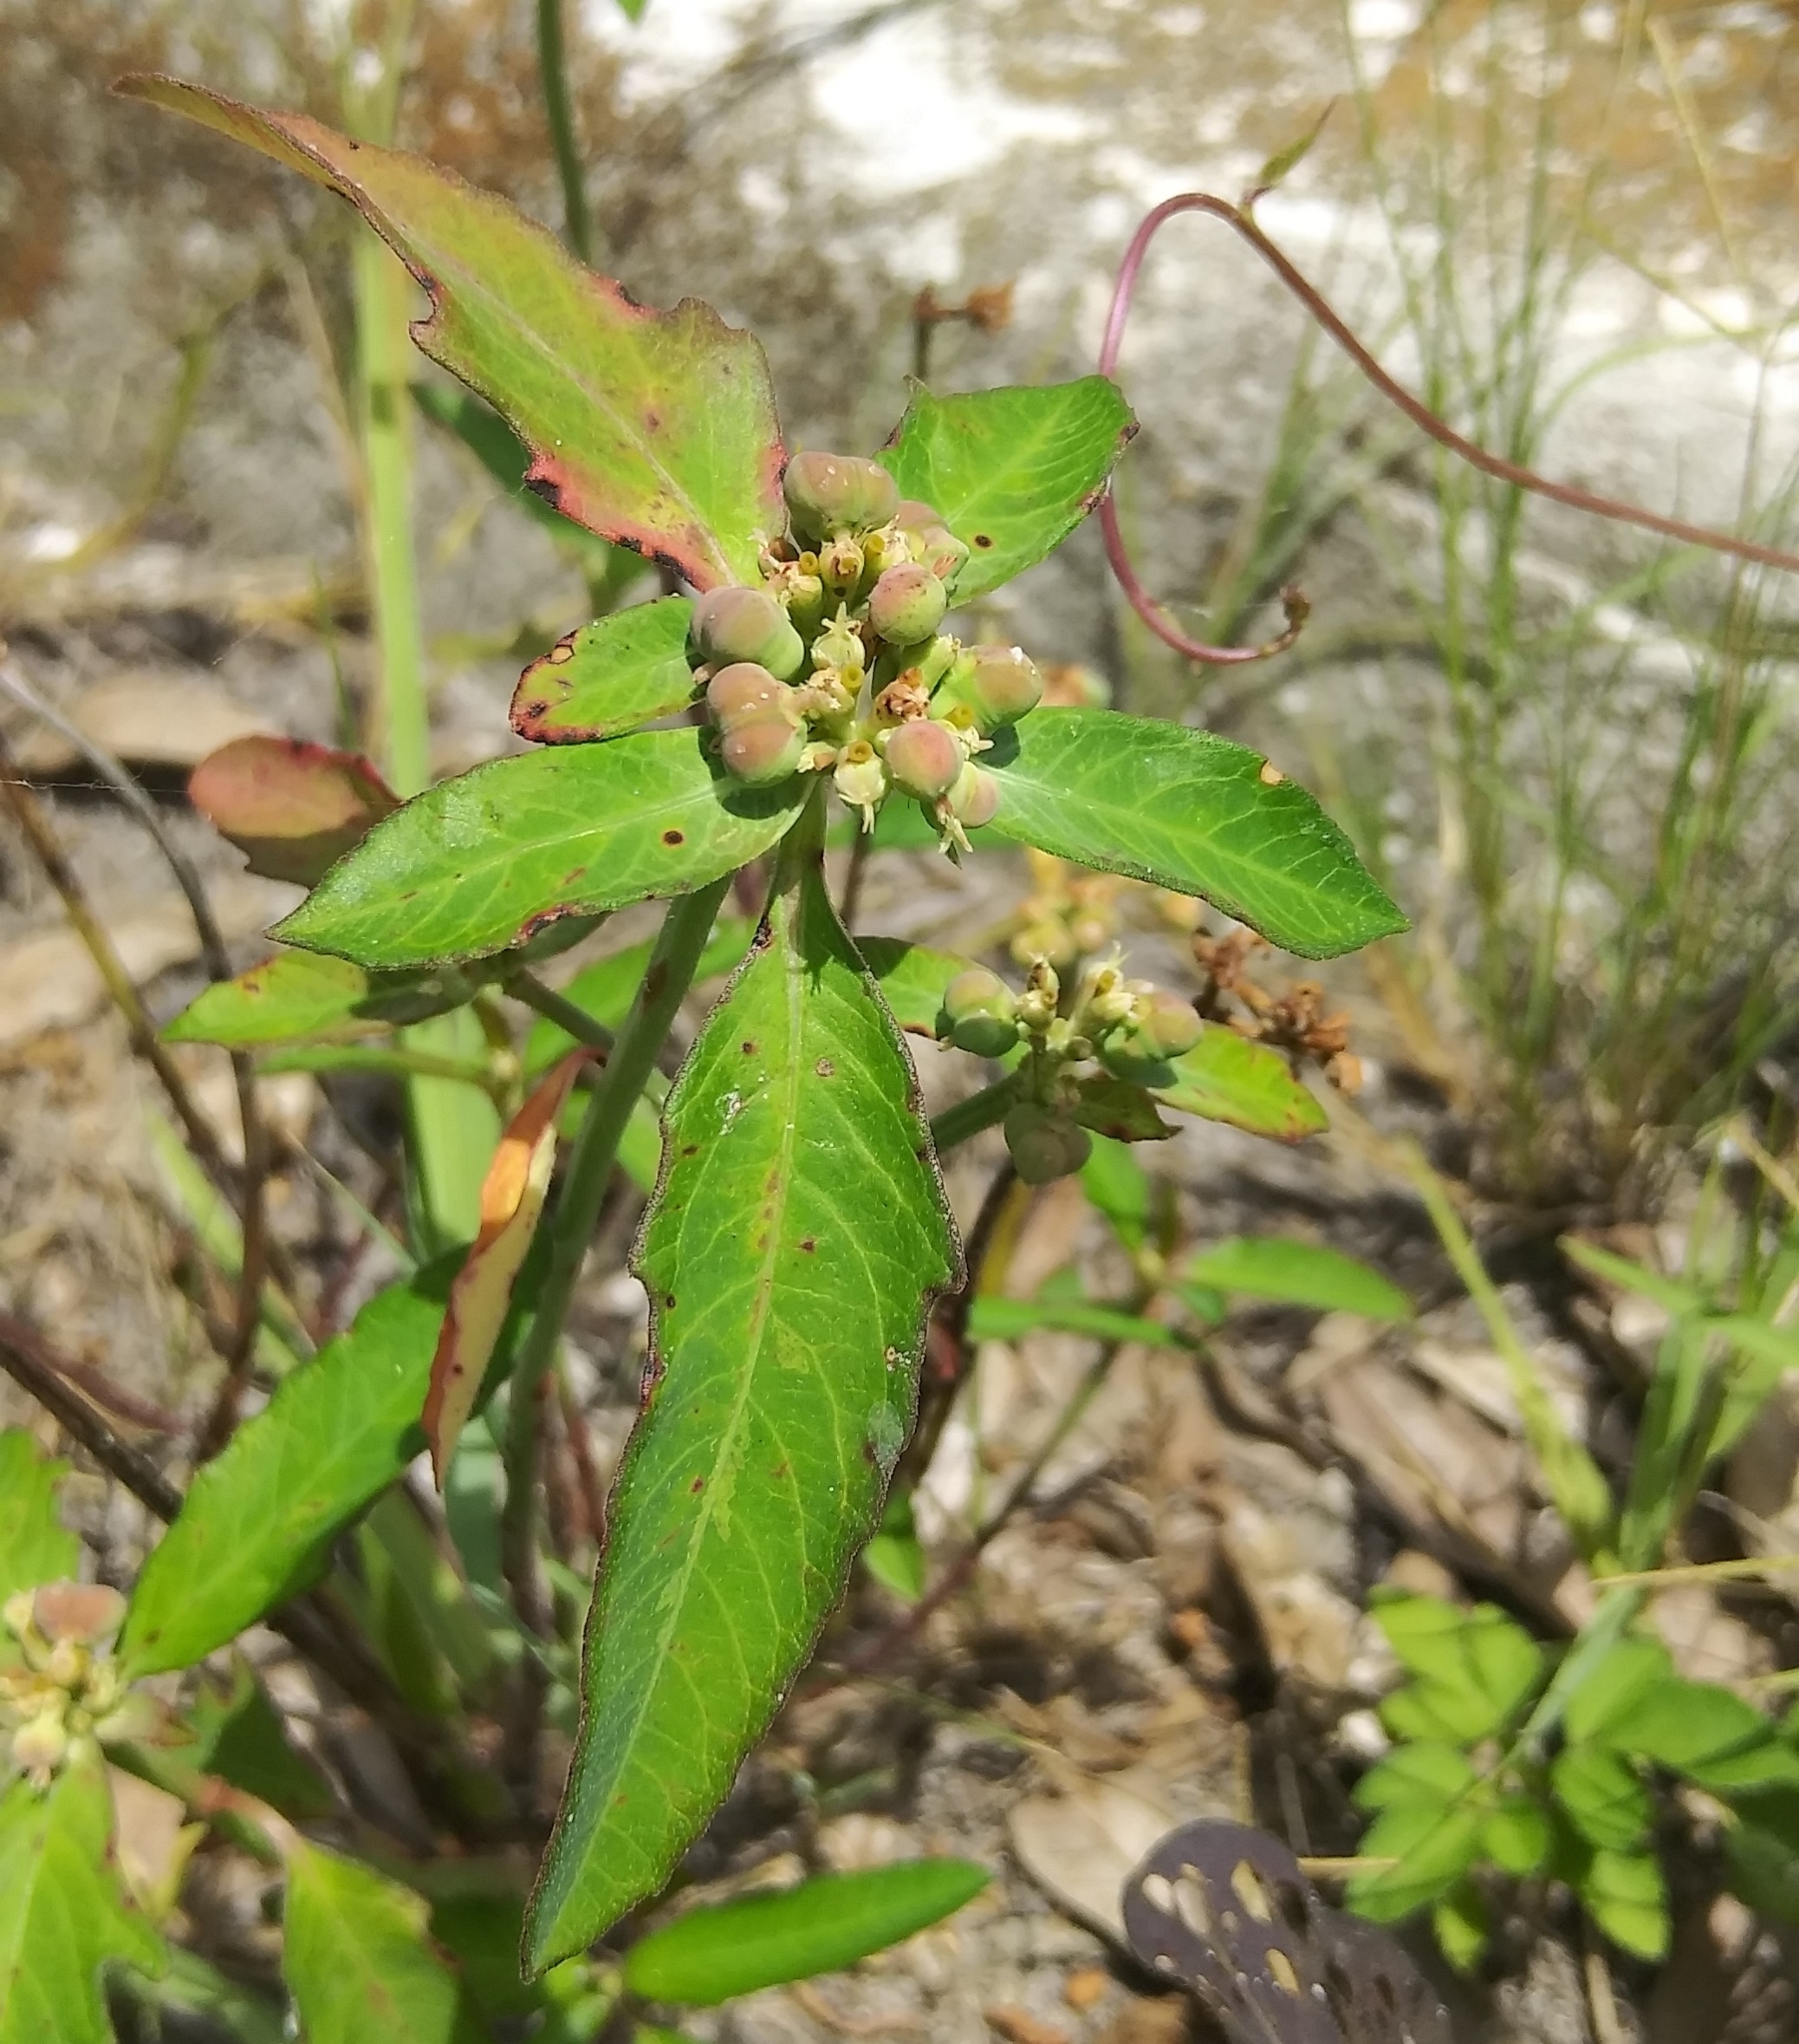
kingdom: Plantae
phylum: Tracheophyta
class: Magnoliopsida
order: Malpighiales
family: Euphorbiaceae
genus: Euphorbia
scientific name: Euphorbia heterophylla
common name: Mexican fireplant
